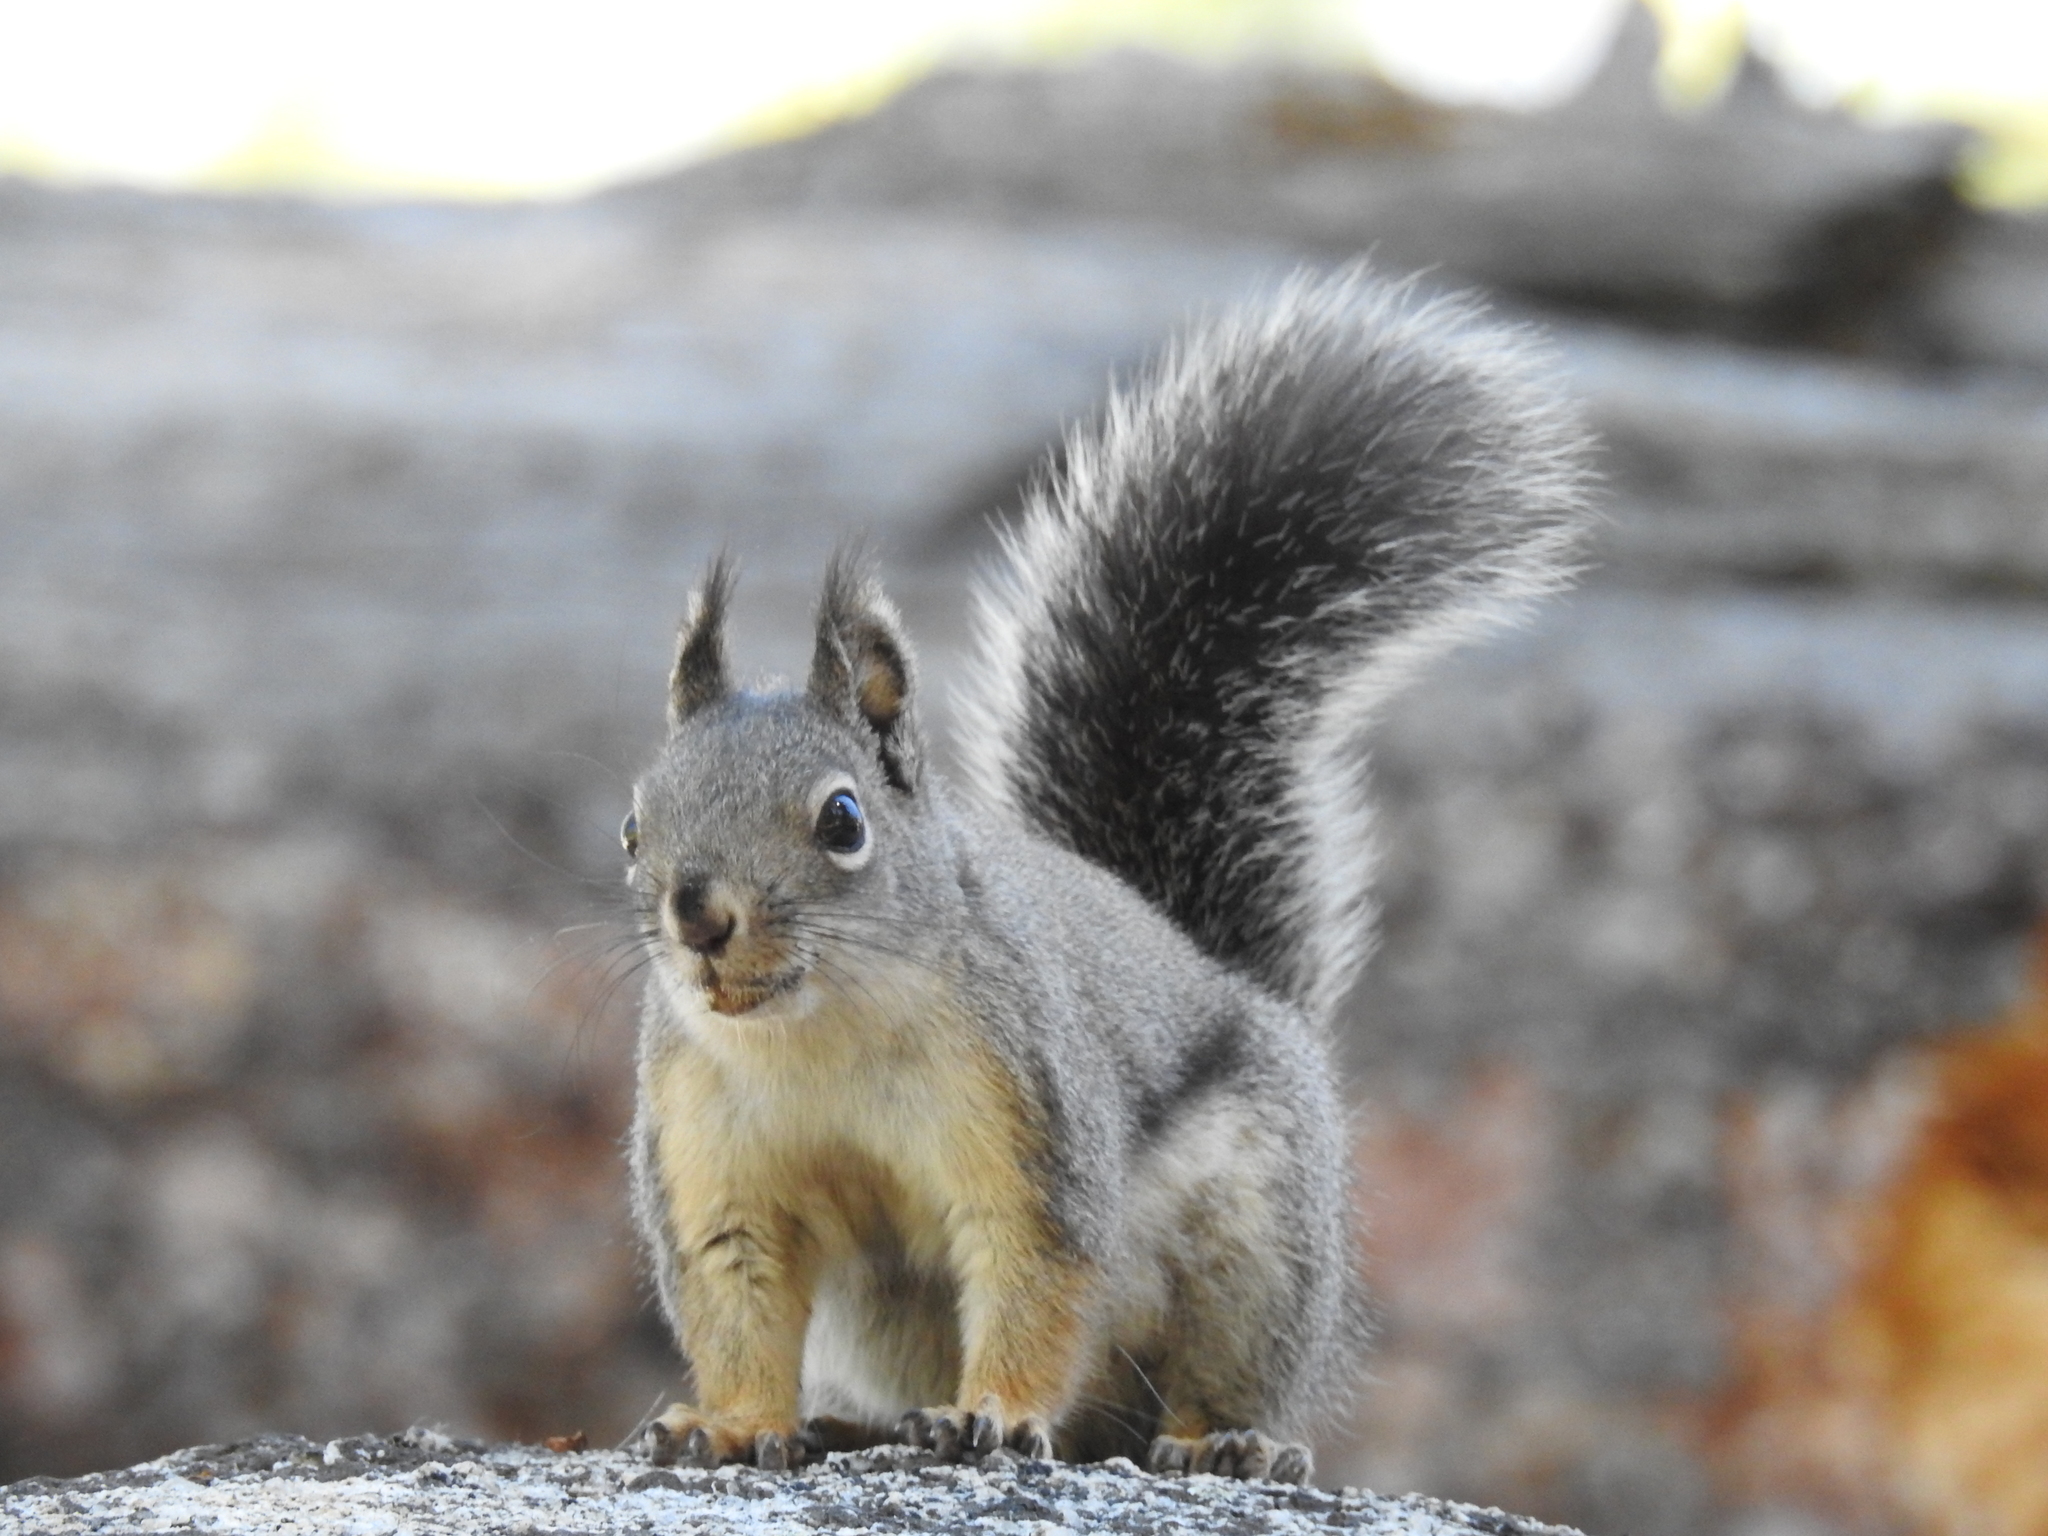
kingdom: Animalia
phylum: Chordata
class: Mammalia
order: Rodentia
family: Sciuridae
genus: Tamiasciurus
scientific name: Tamiasciurus douglasii
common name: Douglas's squirrel
